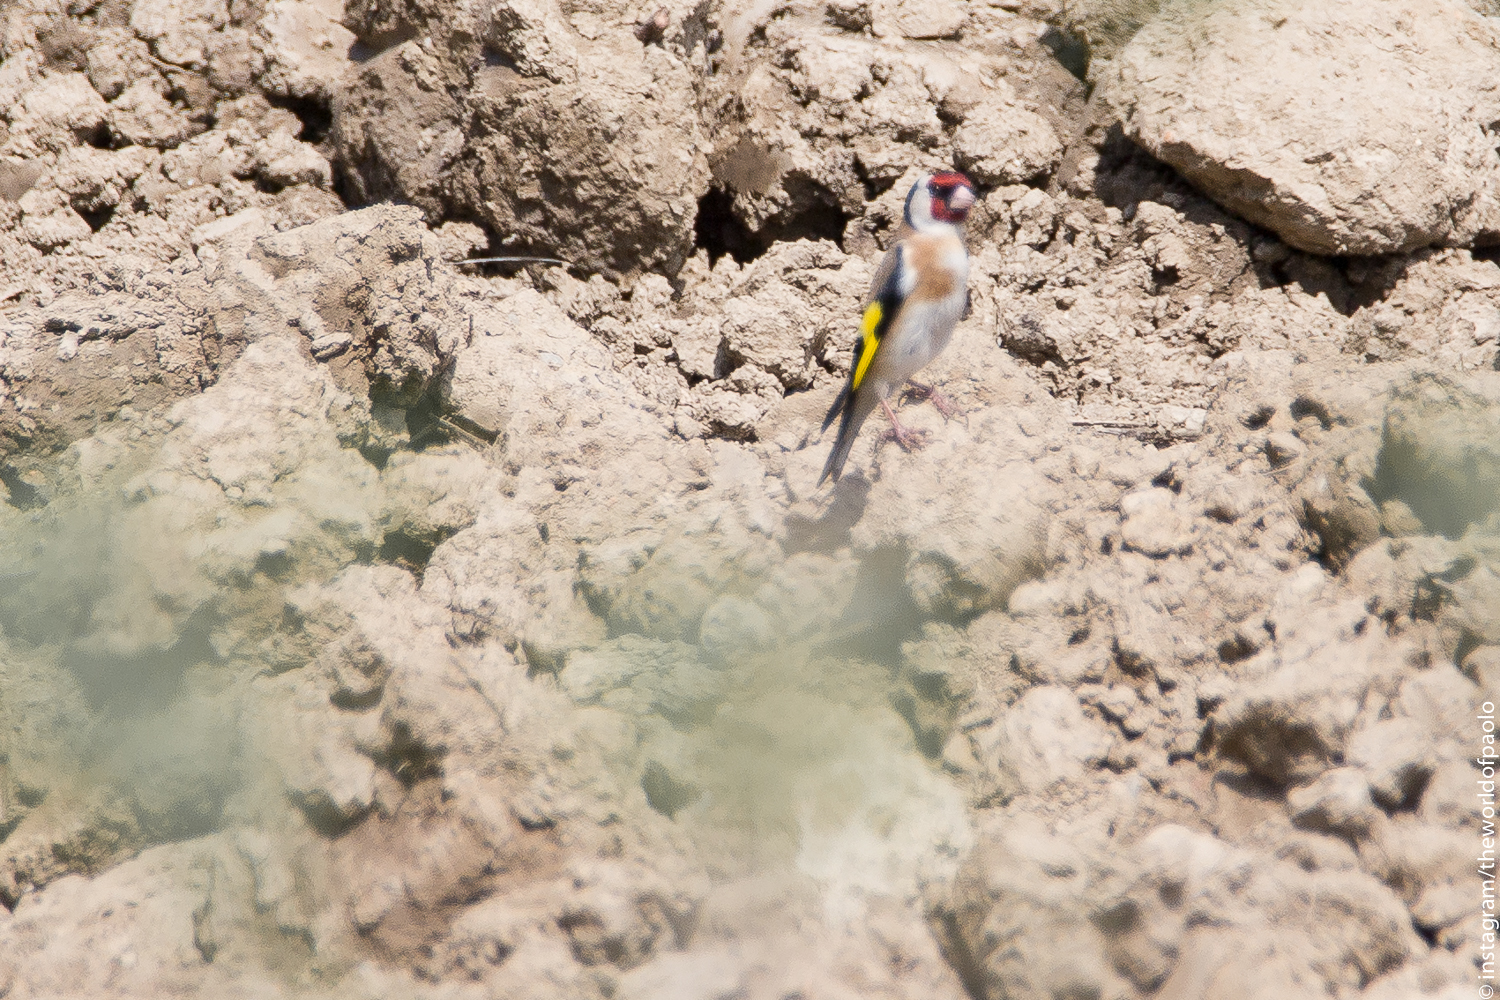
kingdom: Animalia
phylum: Chordata
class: Aves
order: Passeriformes
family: Fringillidae
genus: Carduelis
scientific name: Carduelis carduelis
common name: European goldfinch
